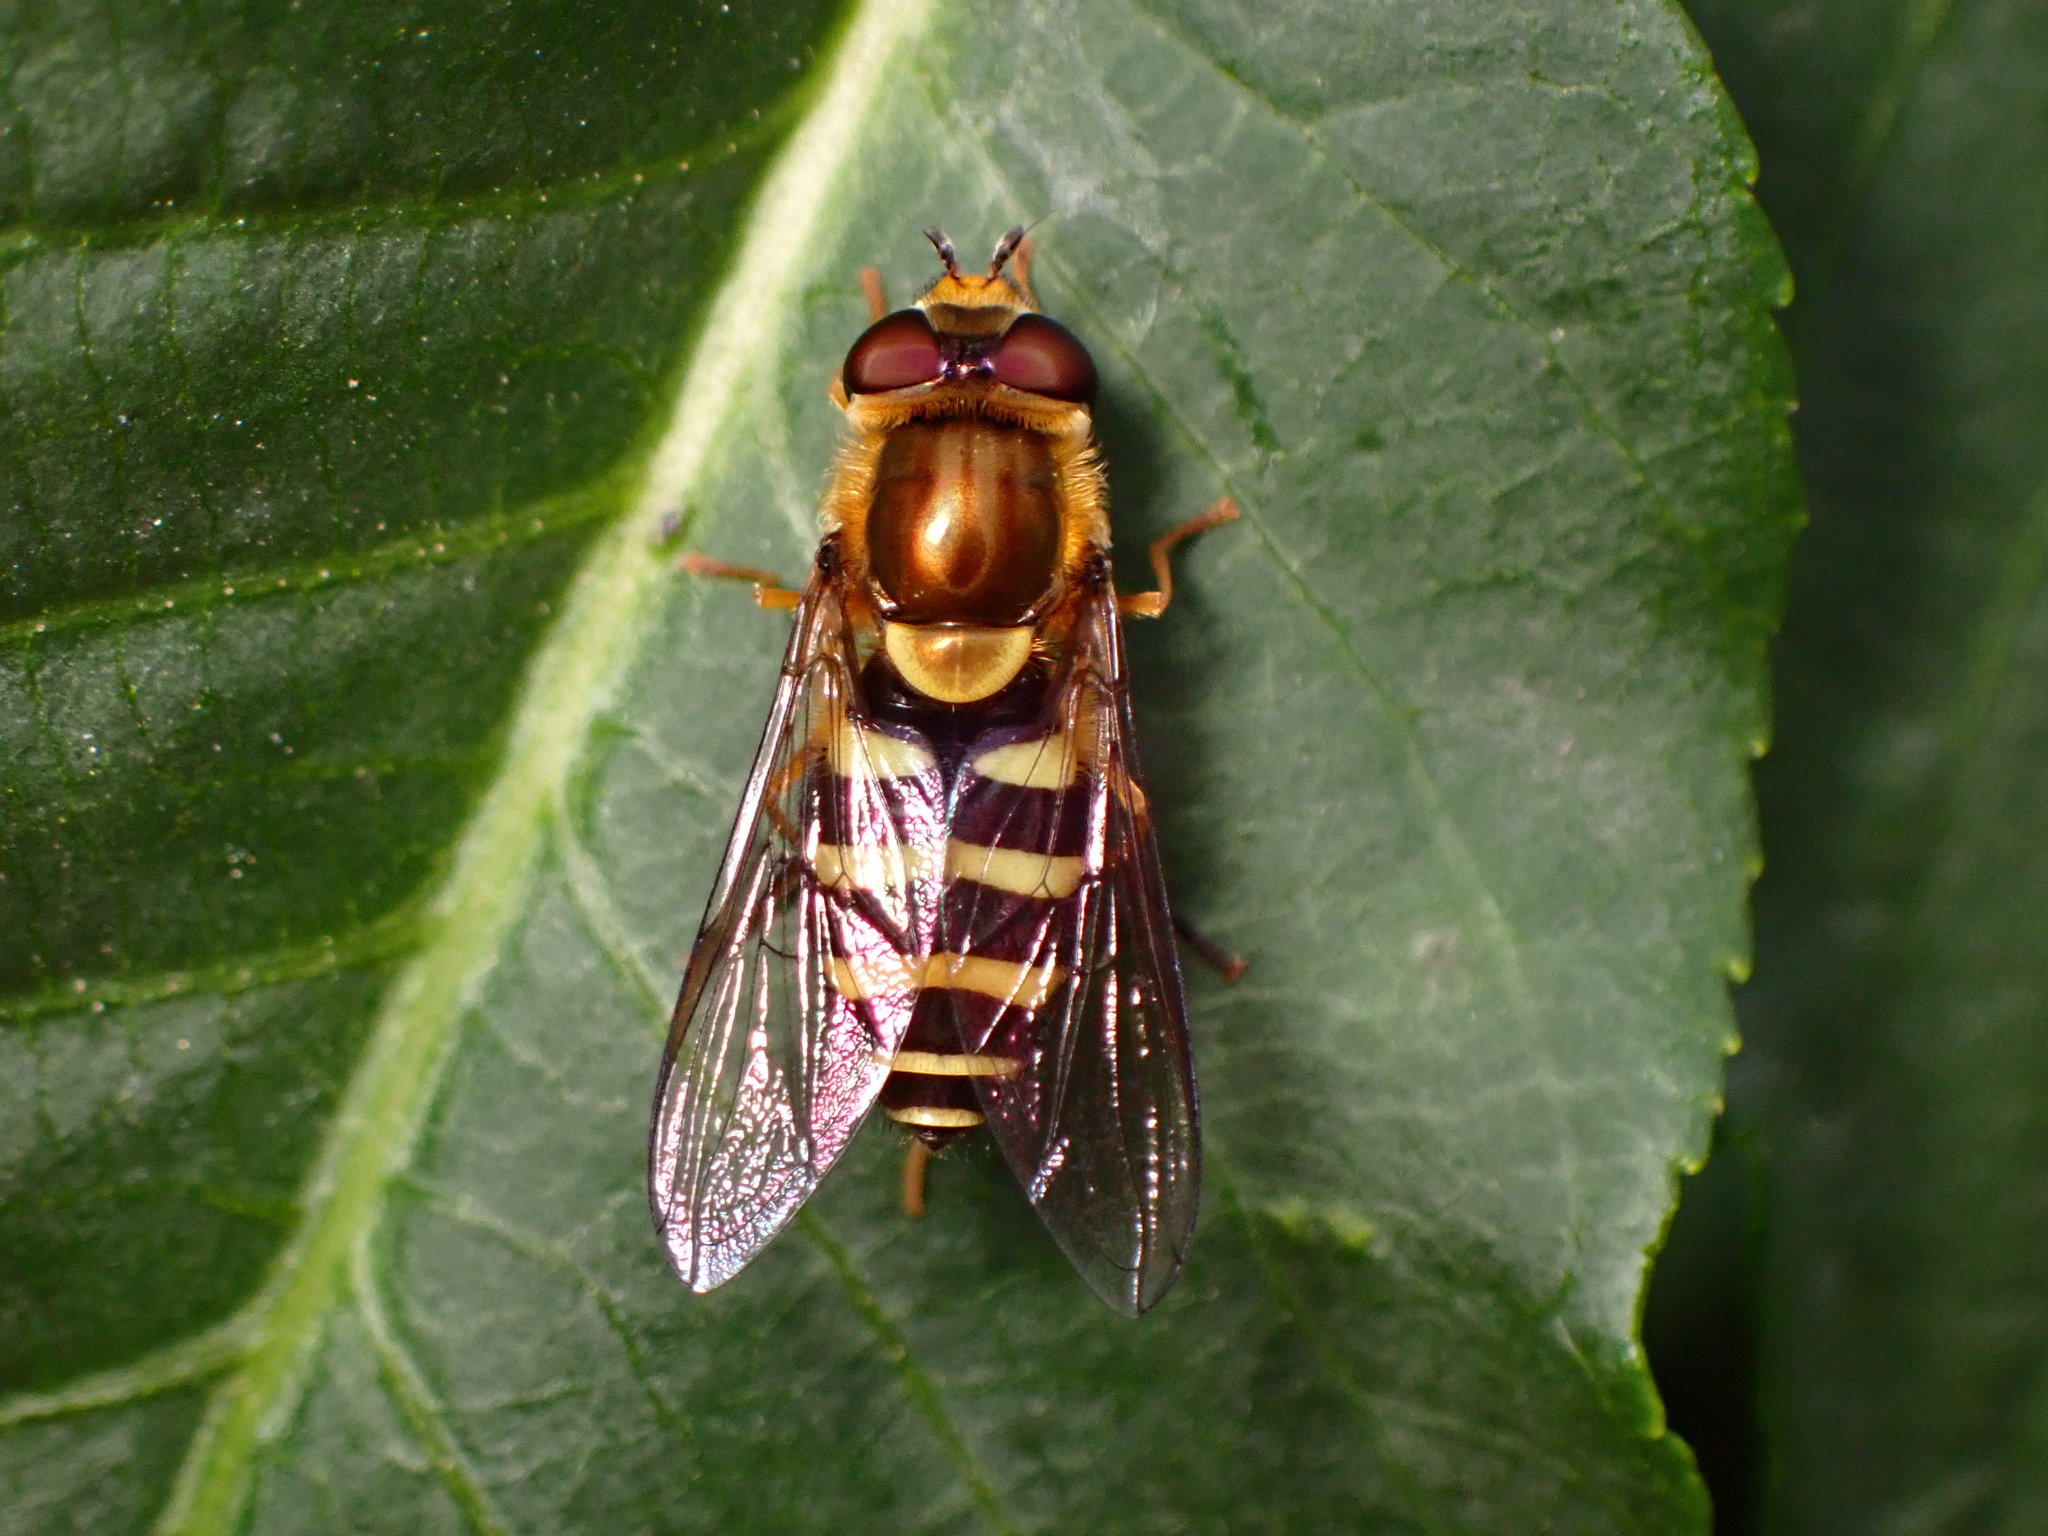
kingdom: Animalia
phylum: Arthropoda
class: Insecta
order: Diptera
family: Syrphidae
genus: Syrphus
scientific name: Syrphus opinator
